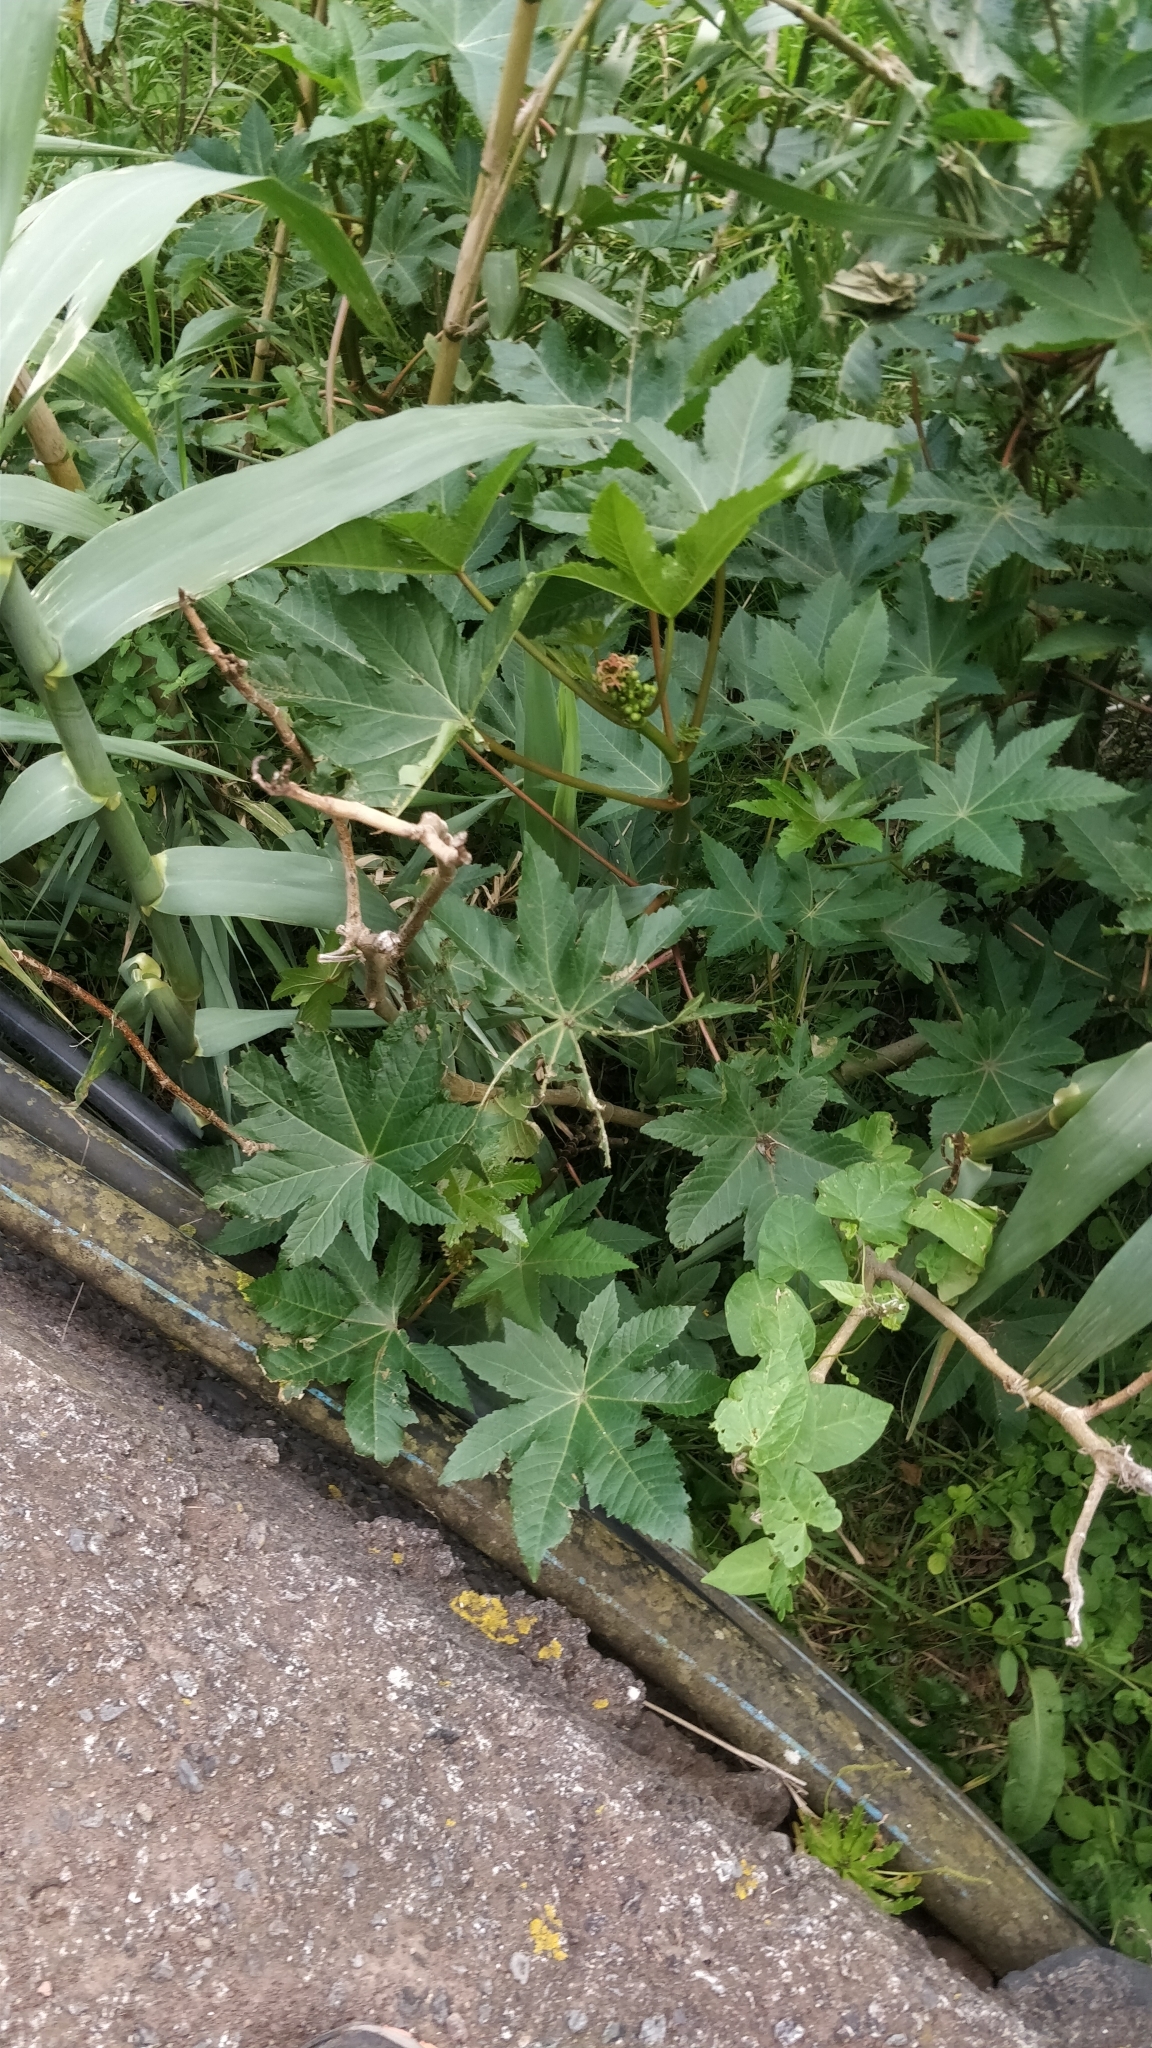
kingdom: Plantae
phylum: Tracheophyta
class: Magnoliopsida
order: Malpighiales
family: Euphorbiaceae
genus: Ricinus
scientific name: Ricinus communis
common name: Castor-oil-plant
